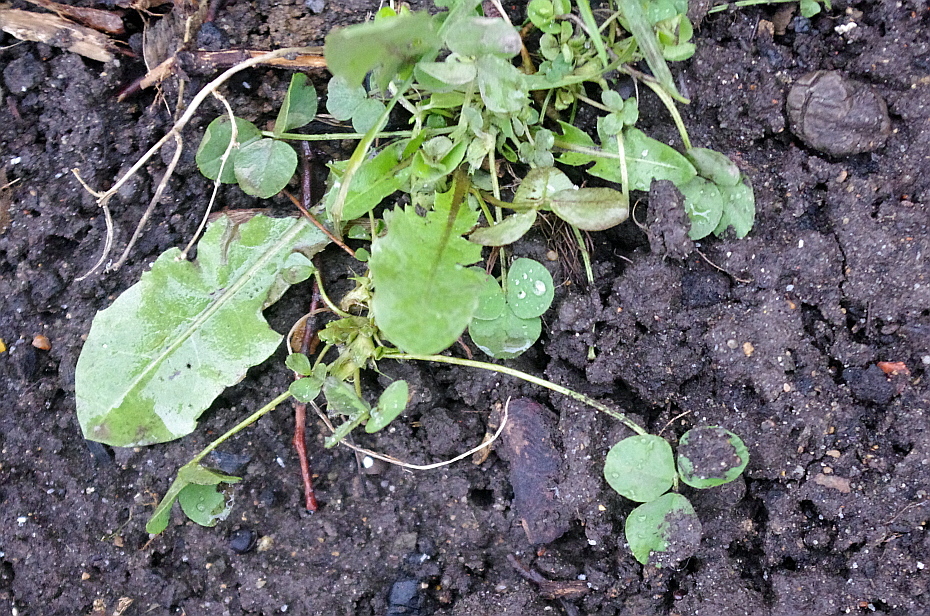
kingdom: Plantae
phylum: Tracheophyta
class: Magnoliopsida
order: Asterales
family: Asteraceae
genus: Taraxacum
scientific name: Taraxacum officinale
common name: Common dandelion
